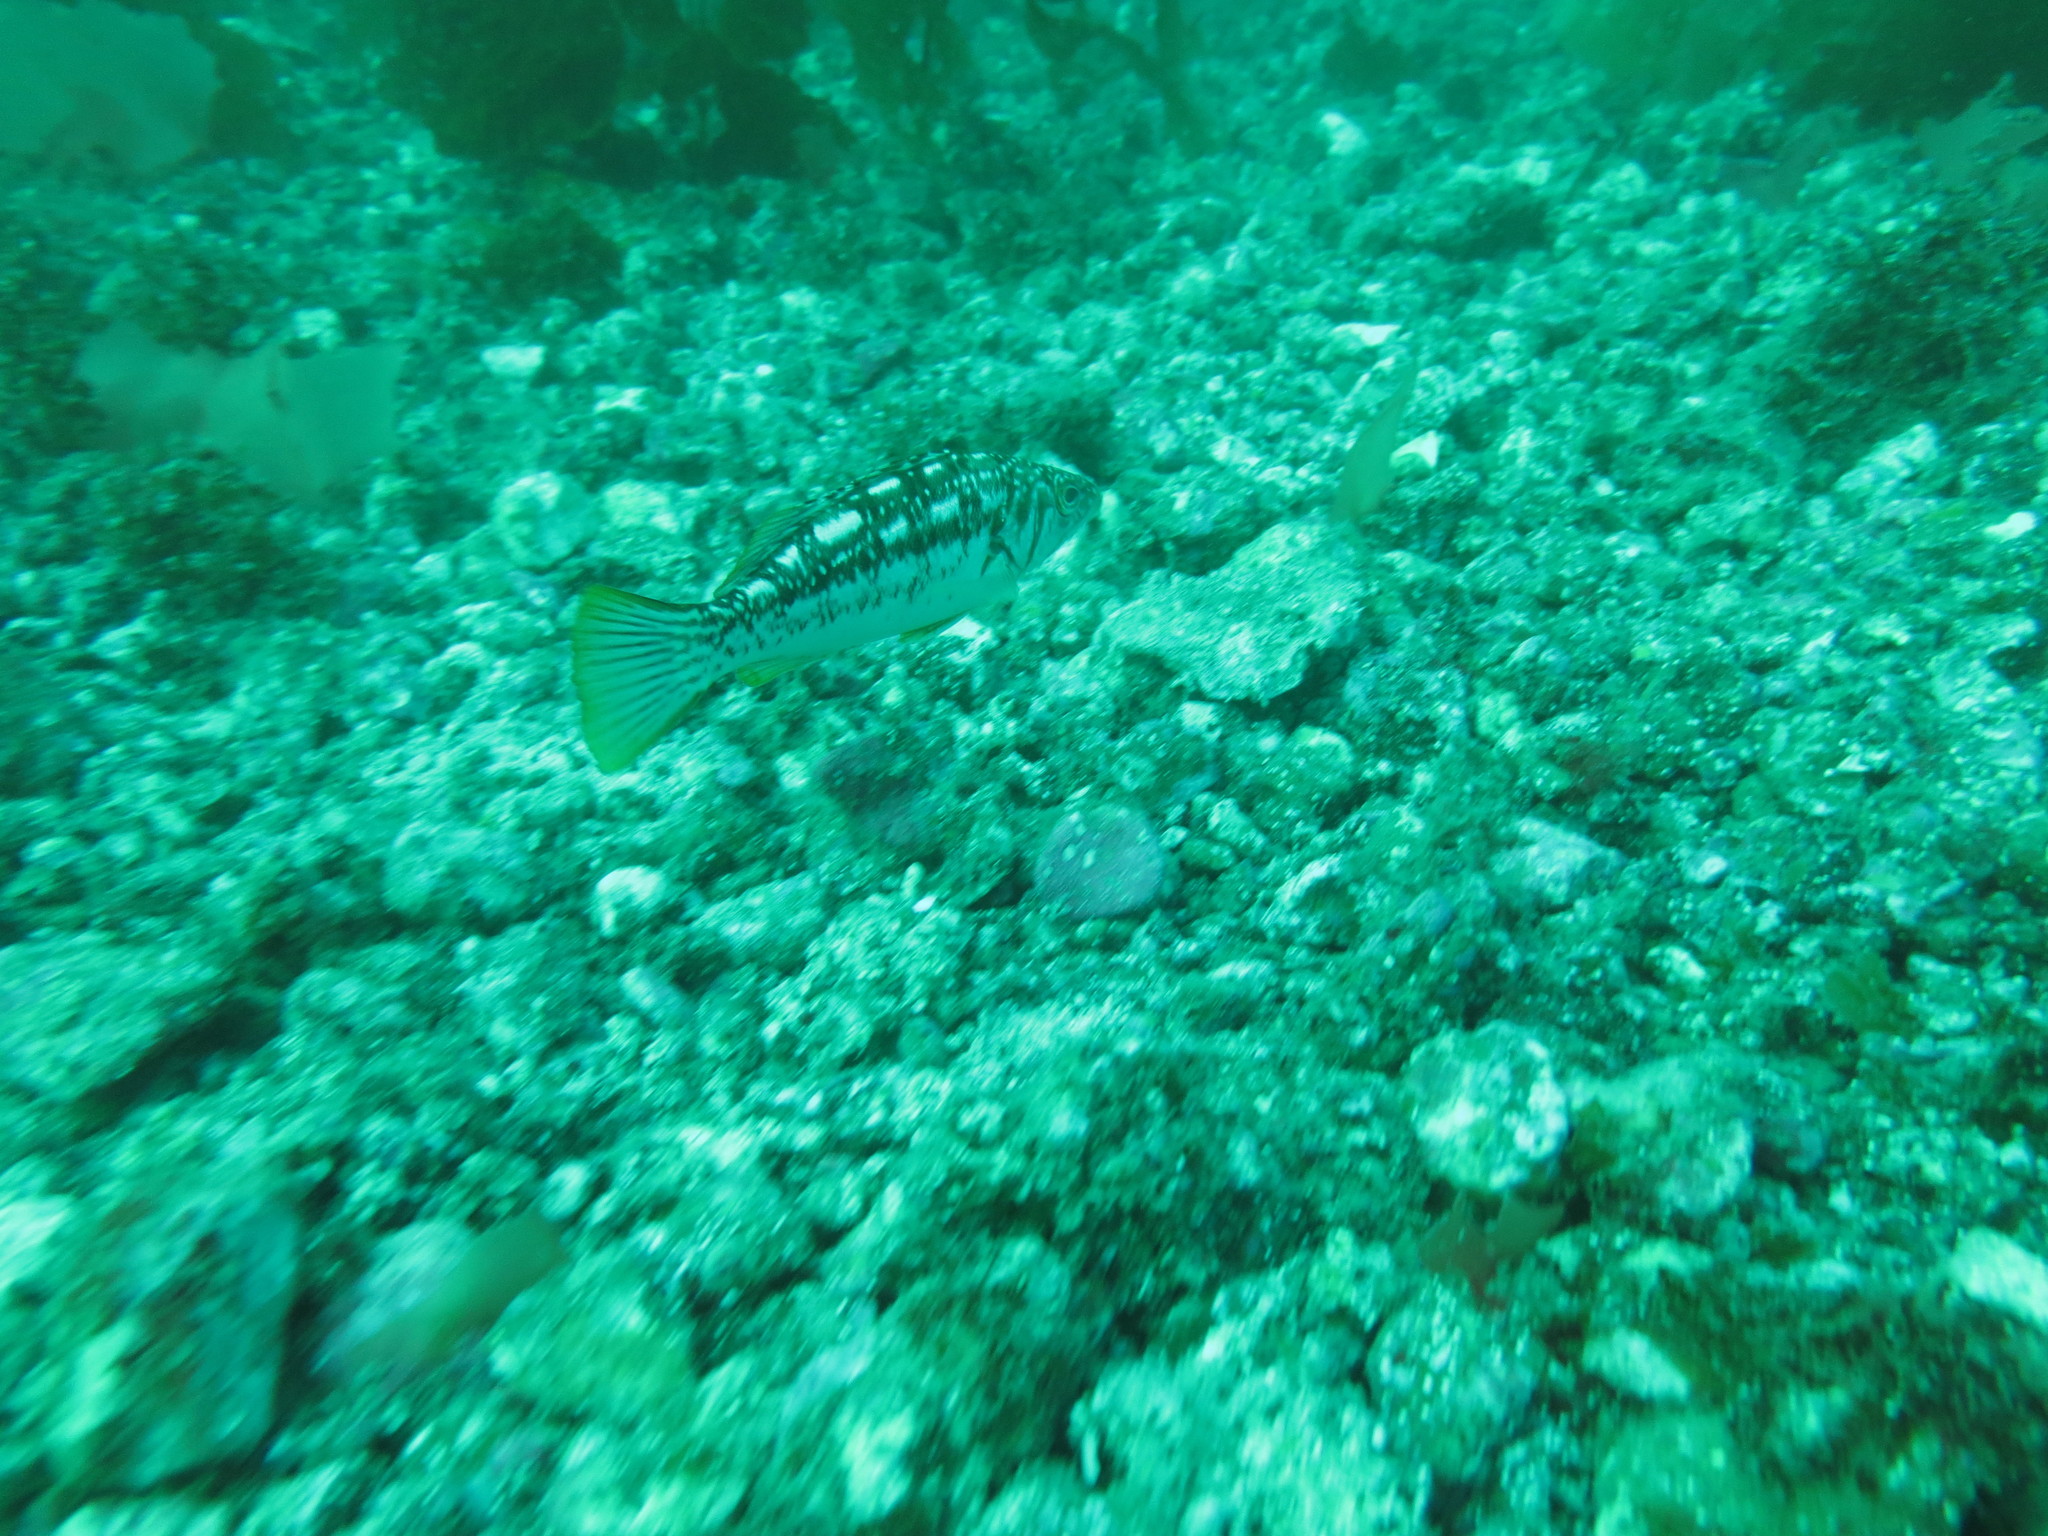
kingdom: Animalia
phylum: Chordata
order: Perciformes
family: Serranidae
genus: Paralabrax
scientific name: Paralabrax clathratus
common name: Kelp bass
